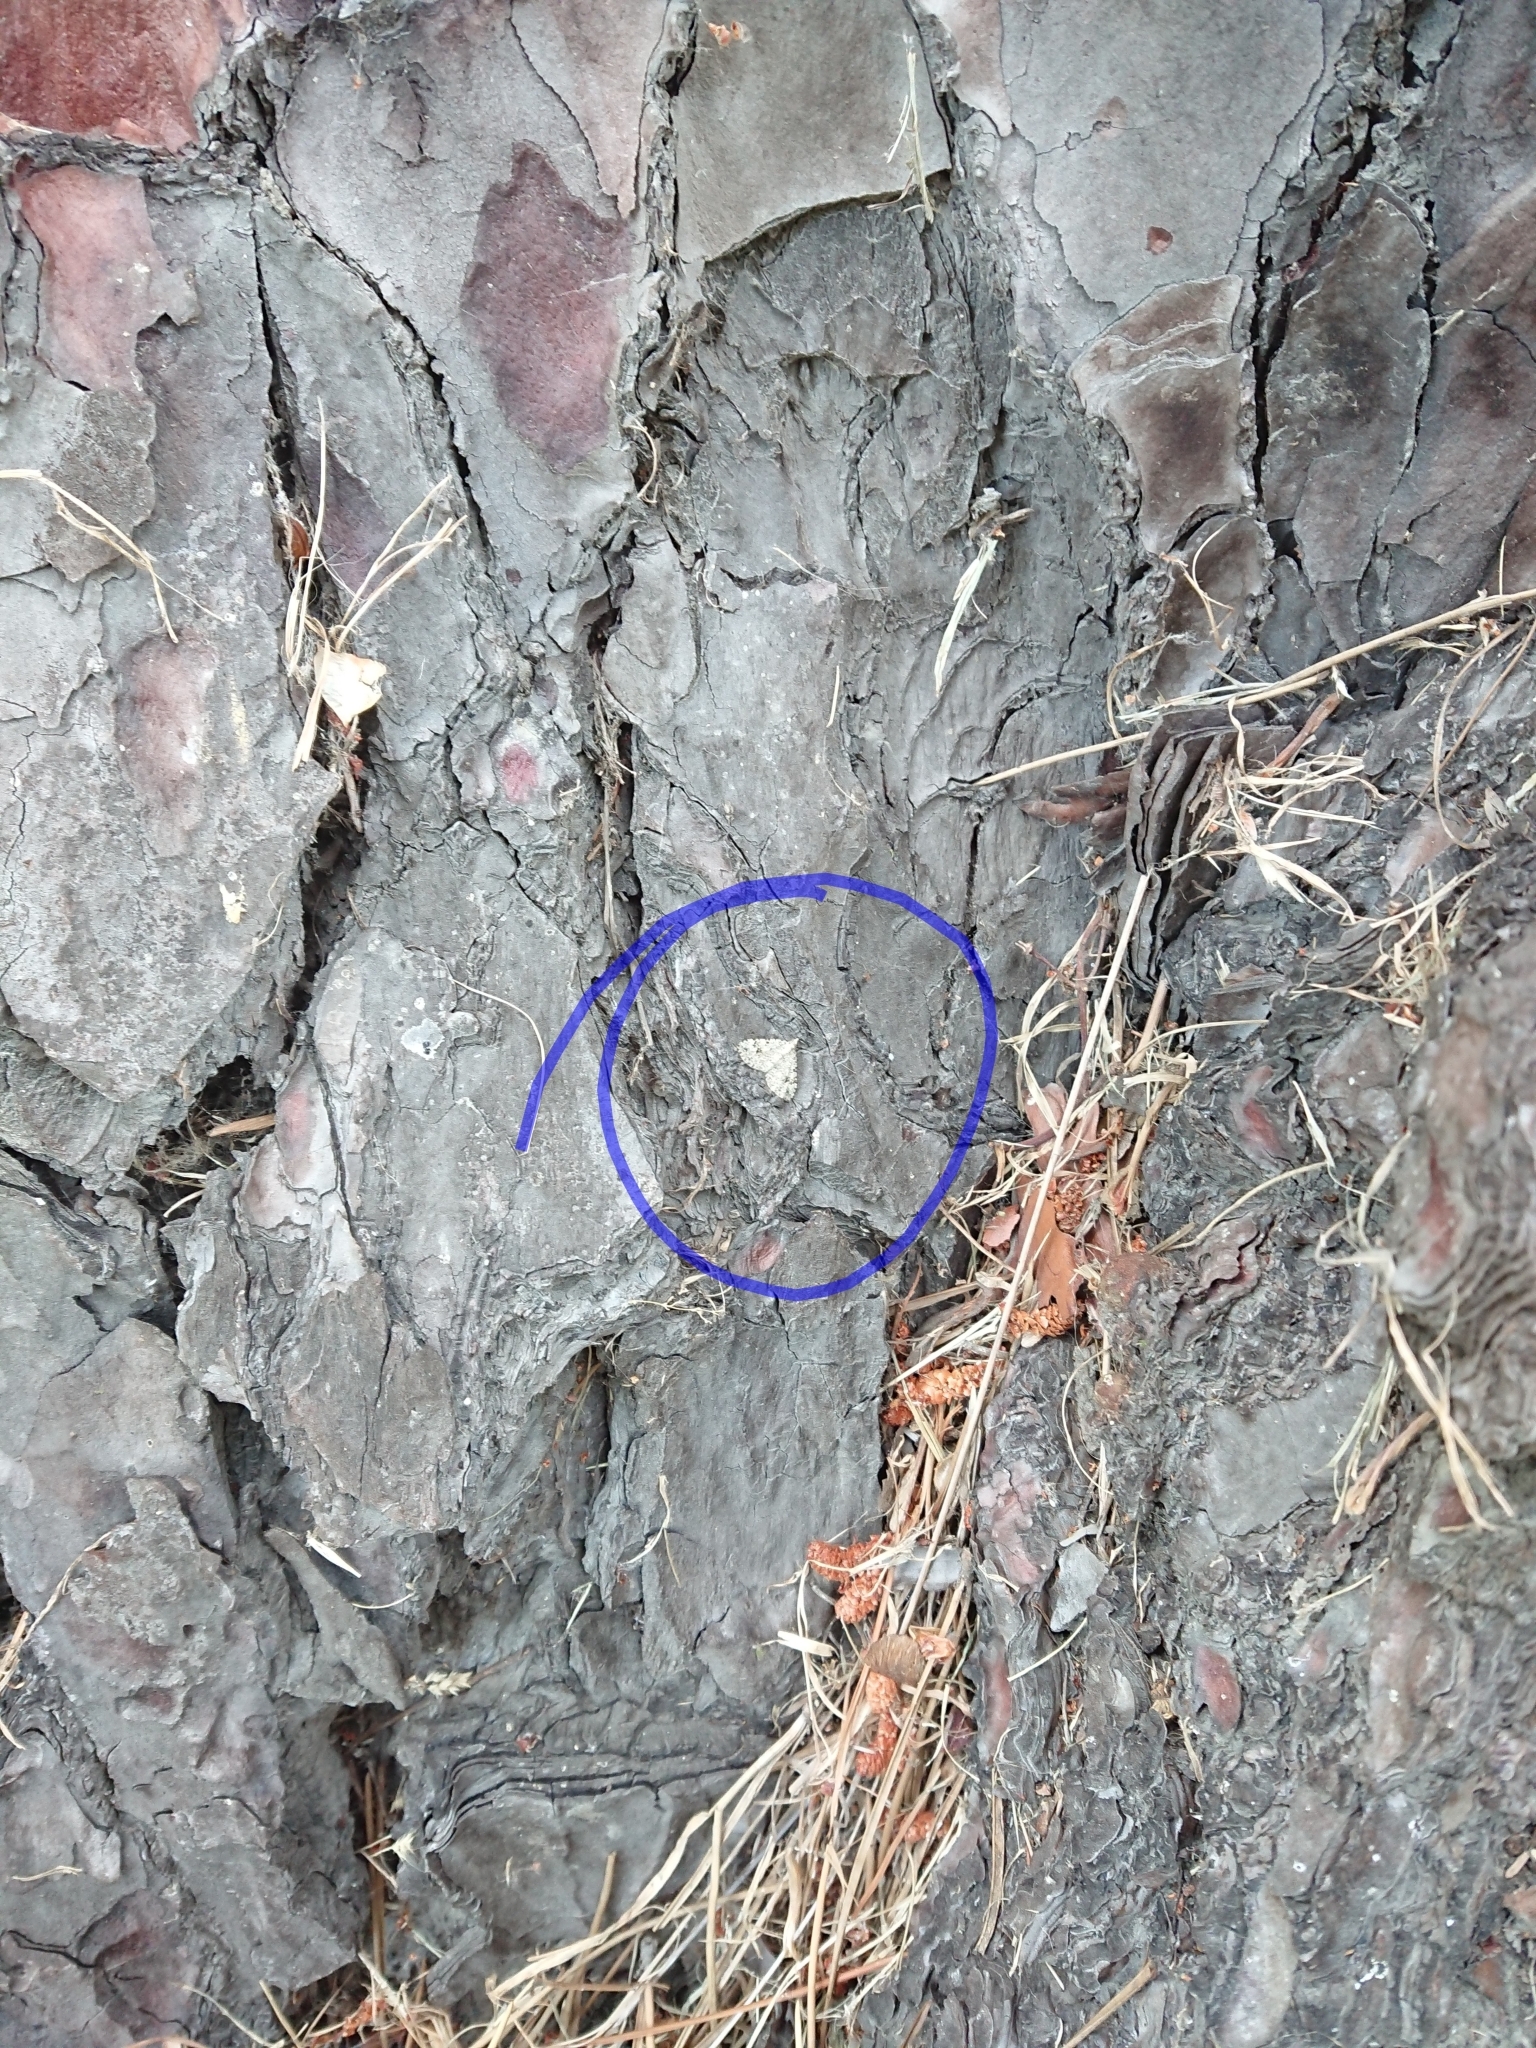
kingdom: Animalia
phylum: Arthropoda
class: Insecta
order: Lepidoptera
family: Geometridae
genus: Helastia
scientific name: Helastia cinerearia
